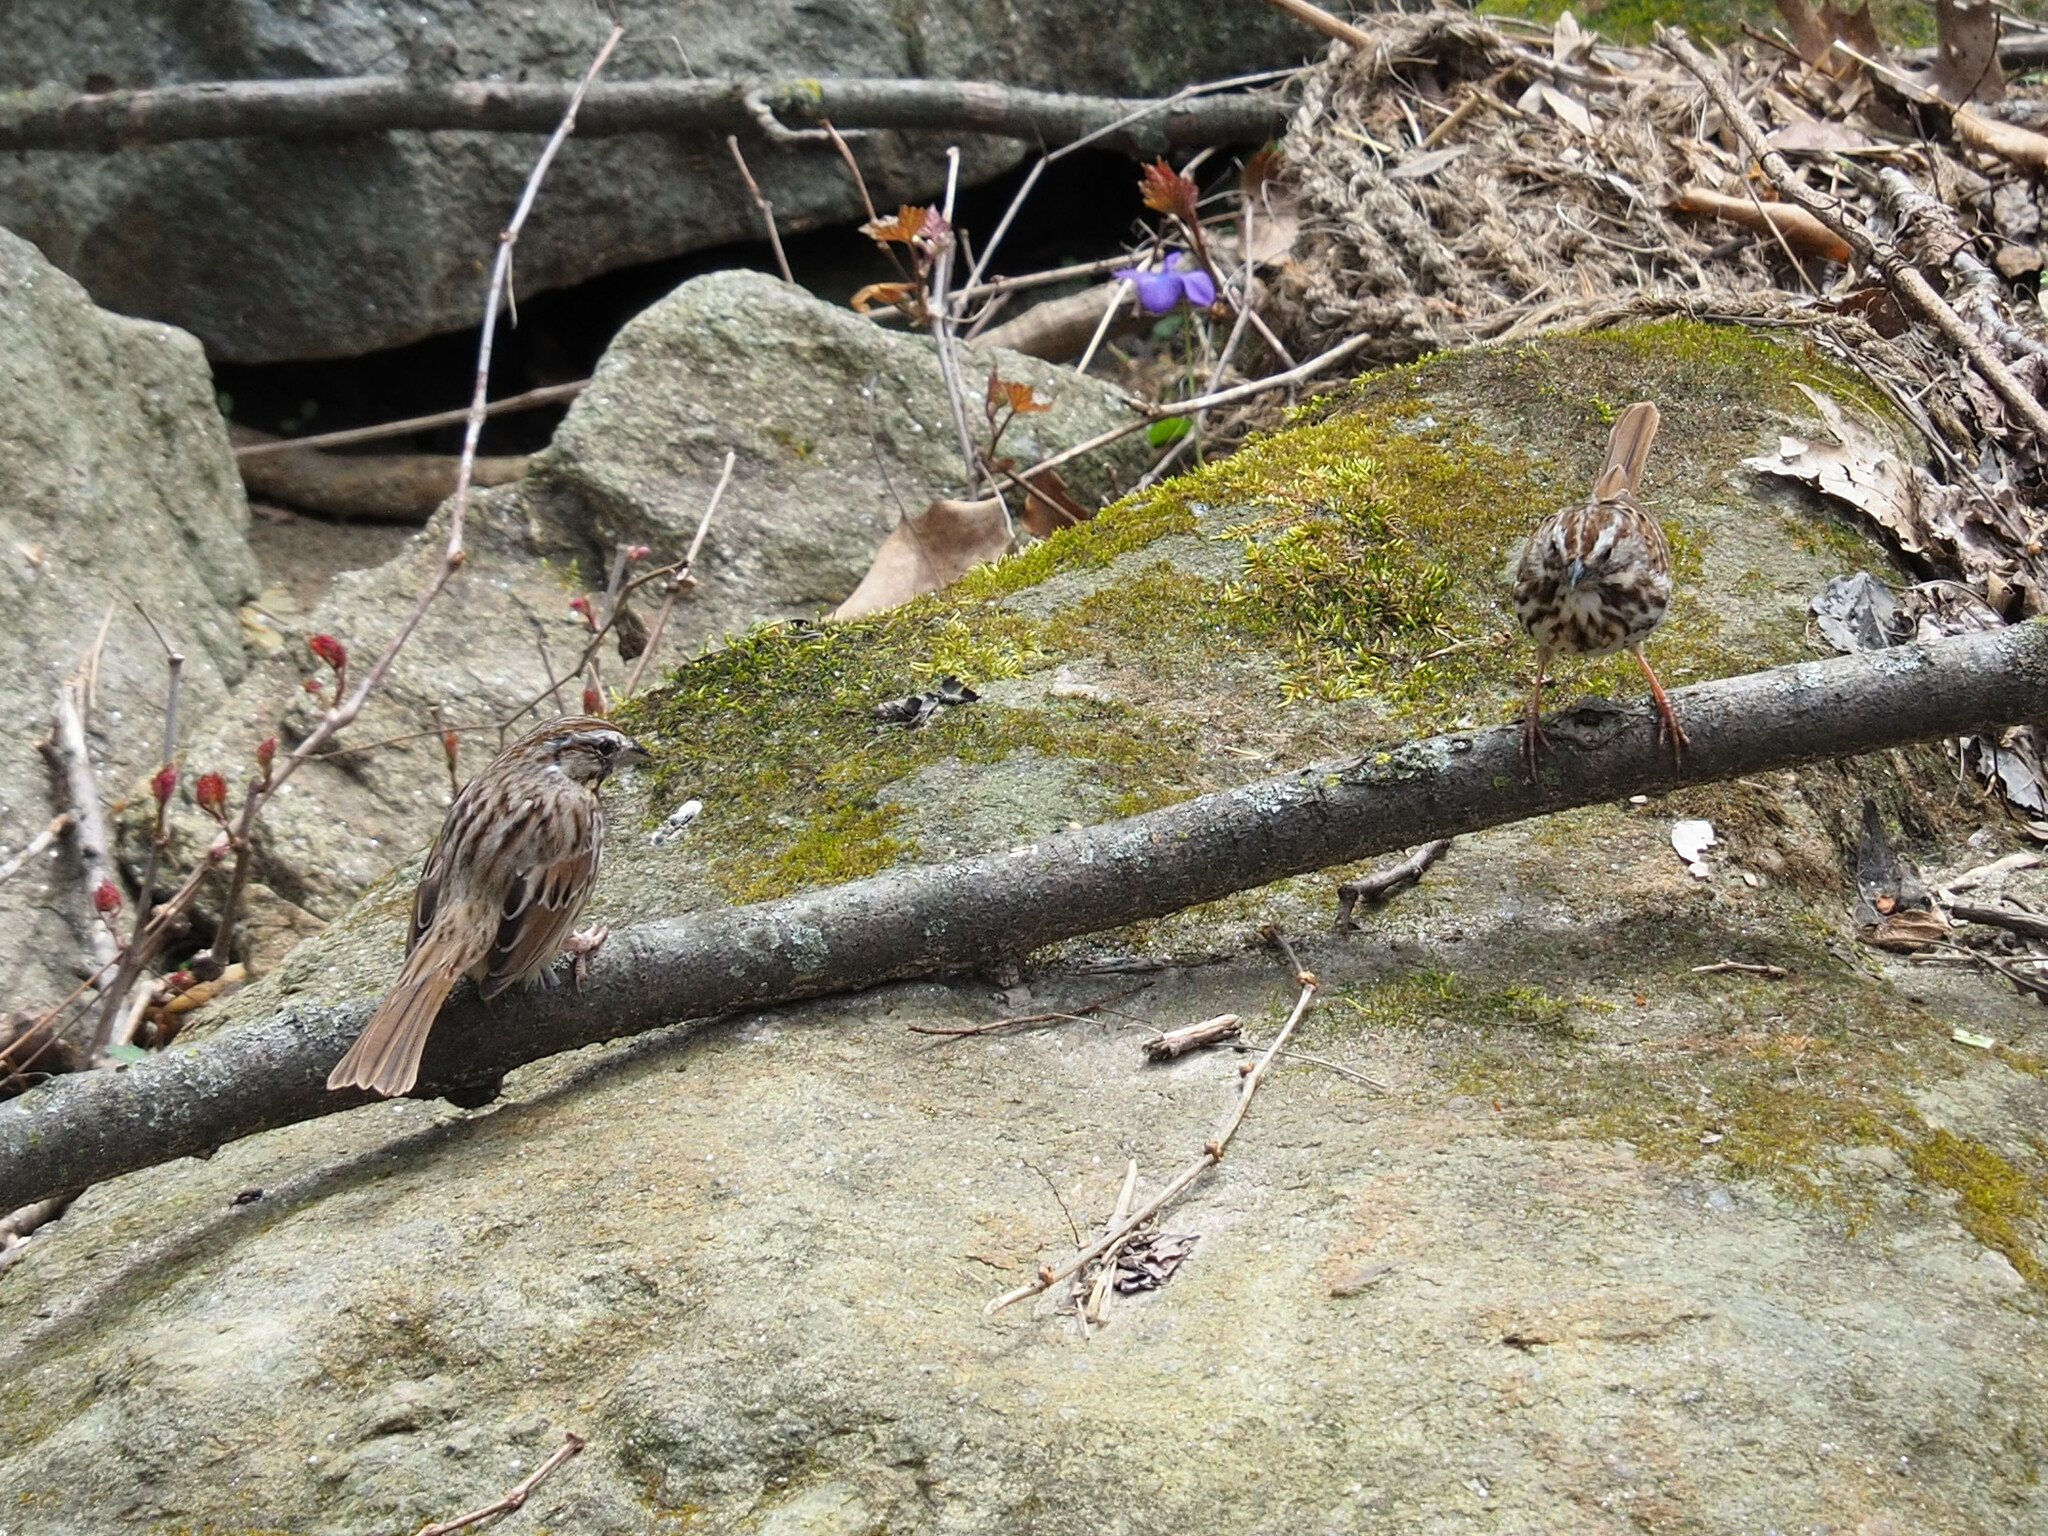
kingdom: Animalia
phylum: Chordata
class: Aves
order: Passeriformes
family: Passerellidae
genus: Melospiza
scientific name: Melospiza melodia
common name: Song sparrow
